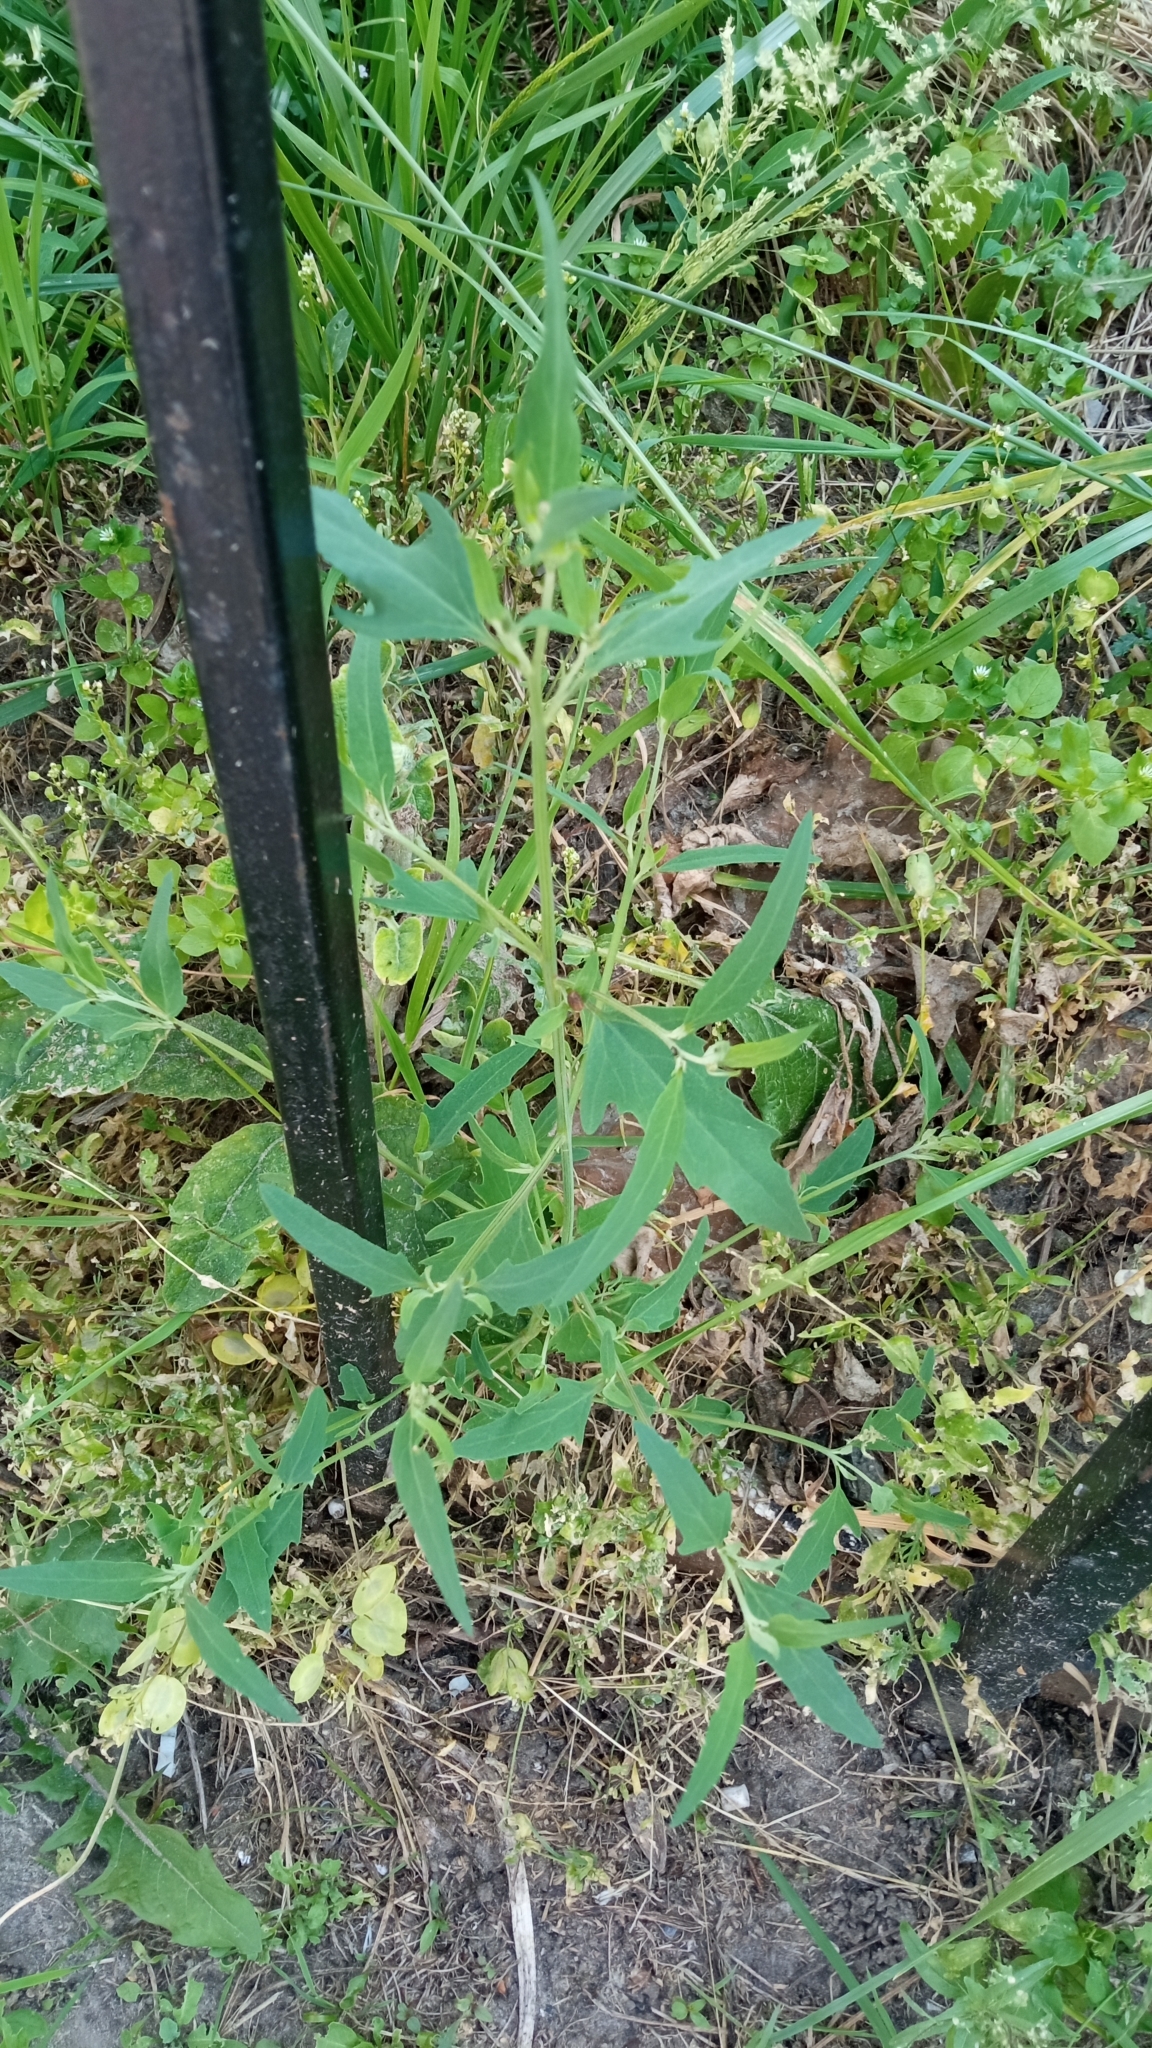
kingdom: Plantae
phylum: Tracheophyta
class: Magnoliopsida
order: Caryophyllales
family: Amaranthaceae
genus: Atriplex
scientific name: Atriplex patula
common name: Common orache
